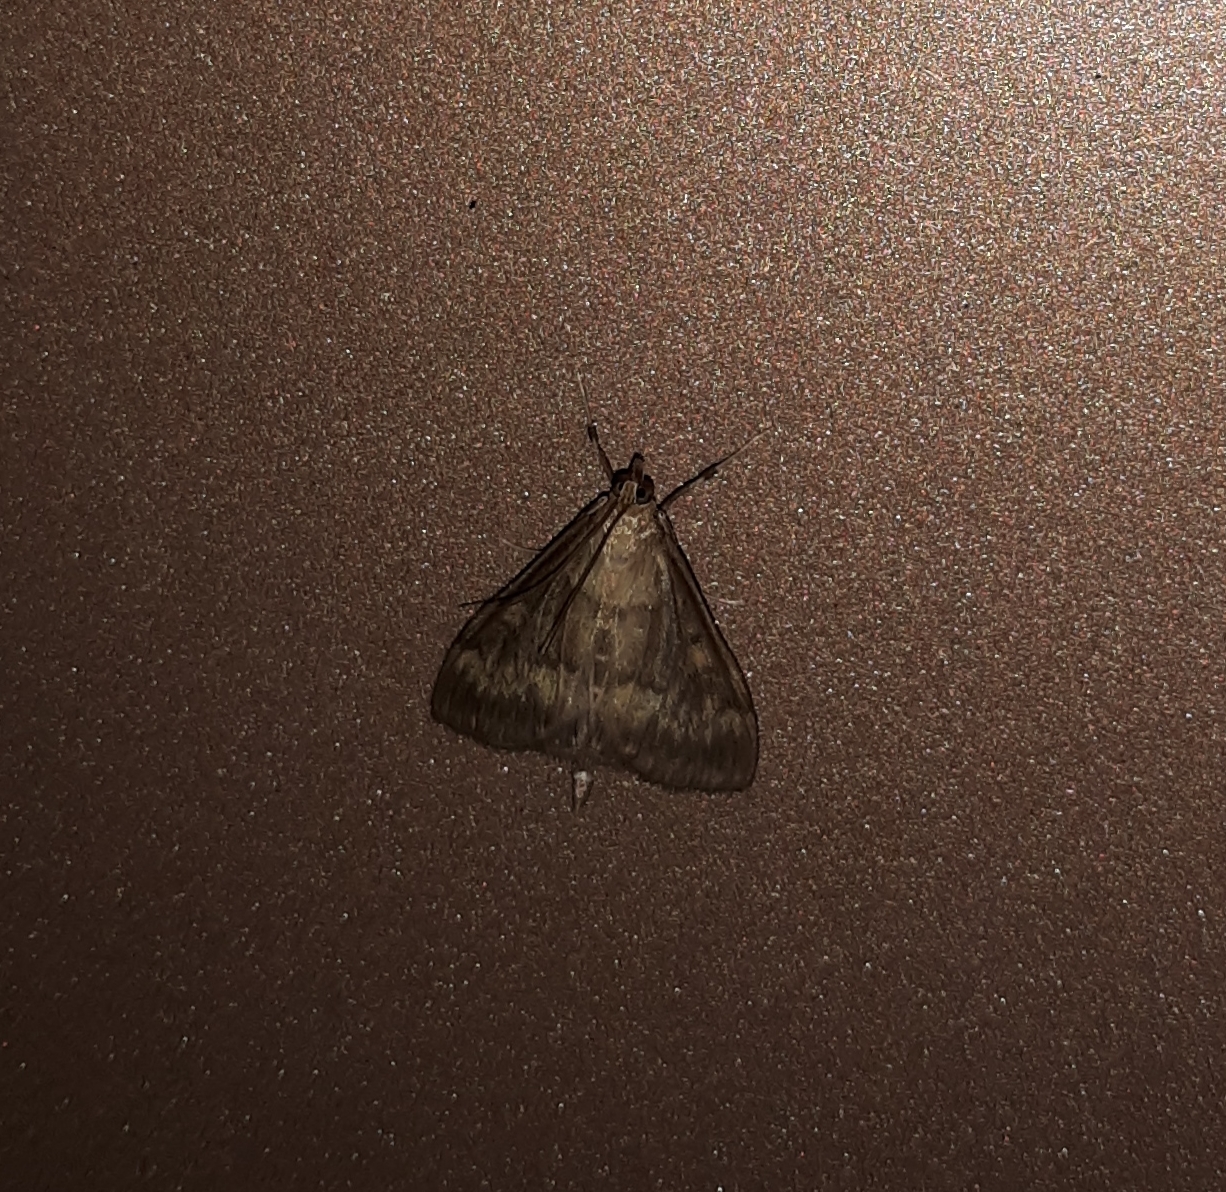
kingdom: Animalia
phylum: Arthropoda
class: Insecta
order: Lepidoptera
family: Crambidae
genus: Ostrinia
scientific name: Ostrinia nubilalis
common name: European corn borer
